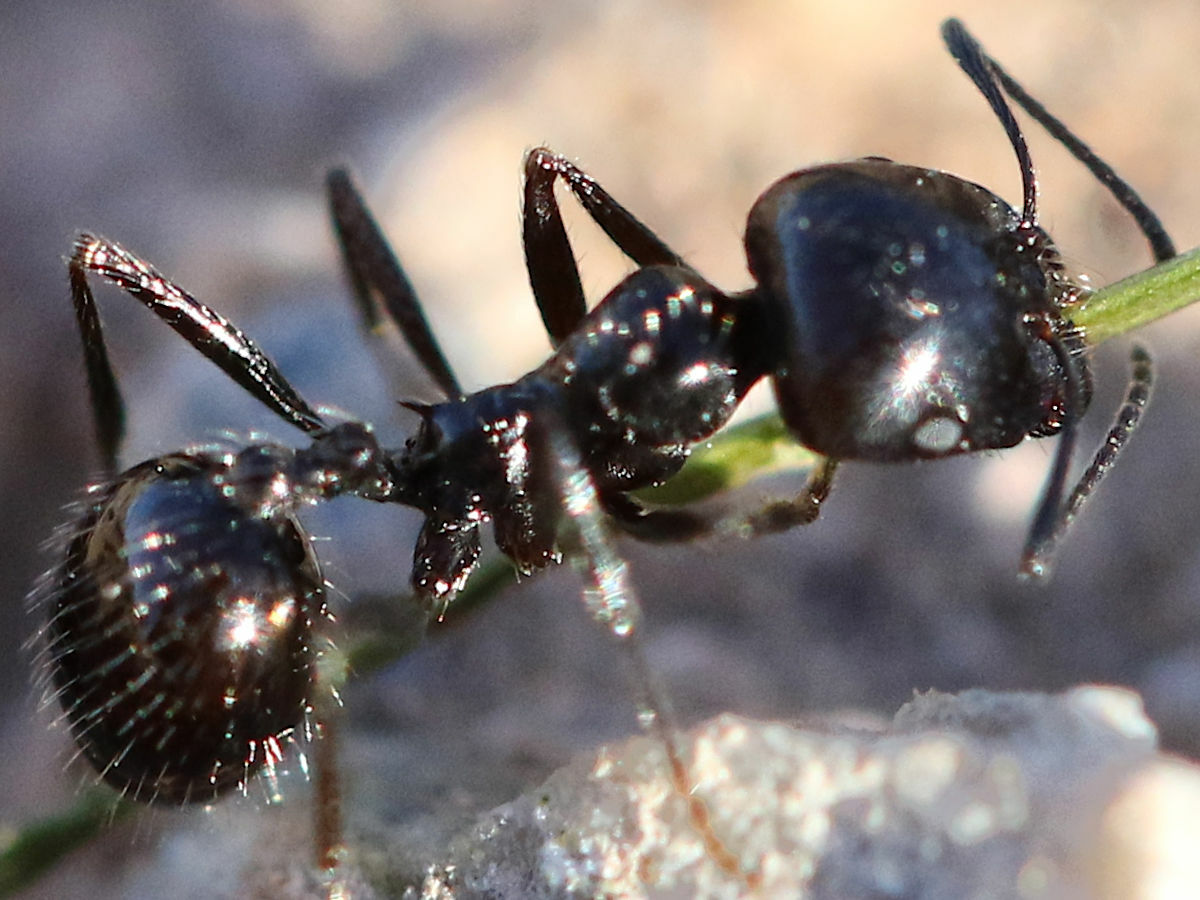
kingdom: Animalia
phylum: Arthropoda
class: Insecta
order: Hymenoptera
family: Formicidae
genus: Messor
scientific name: Messor pergandei
